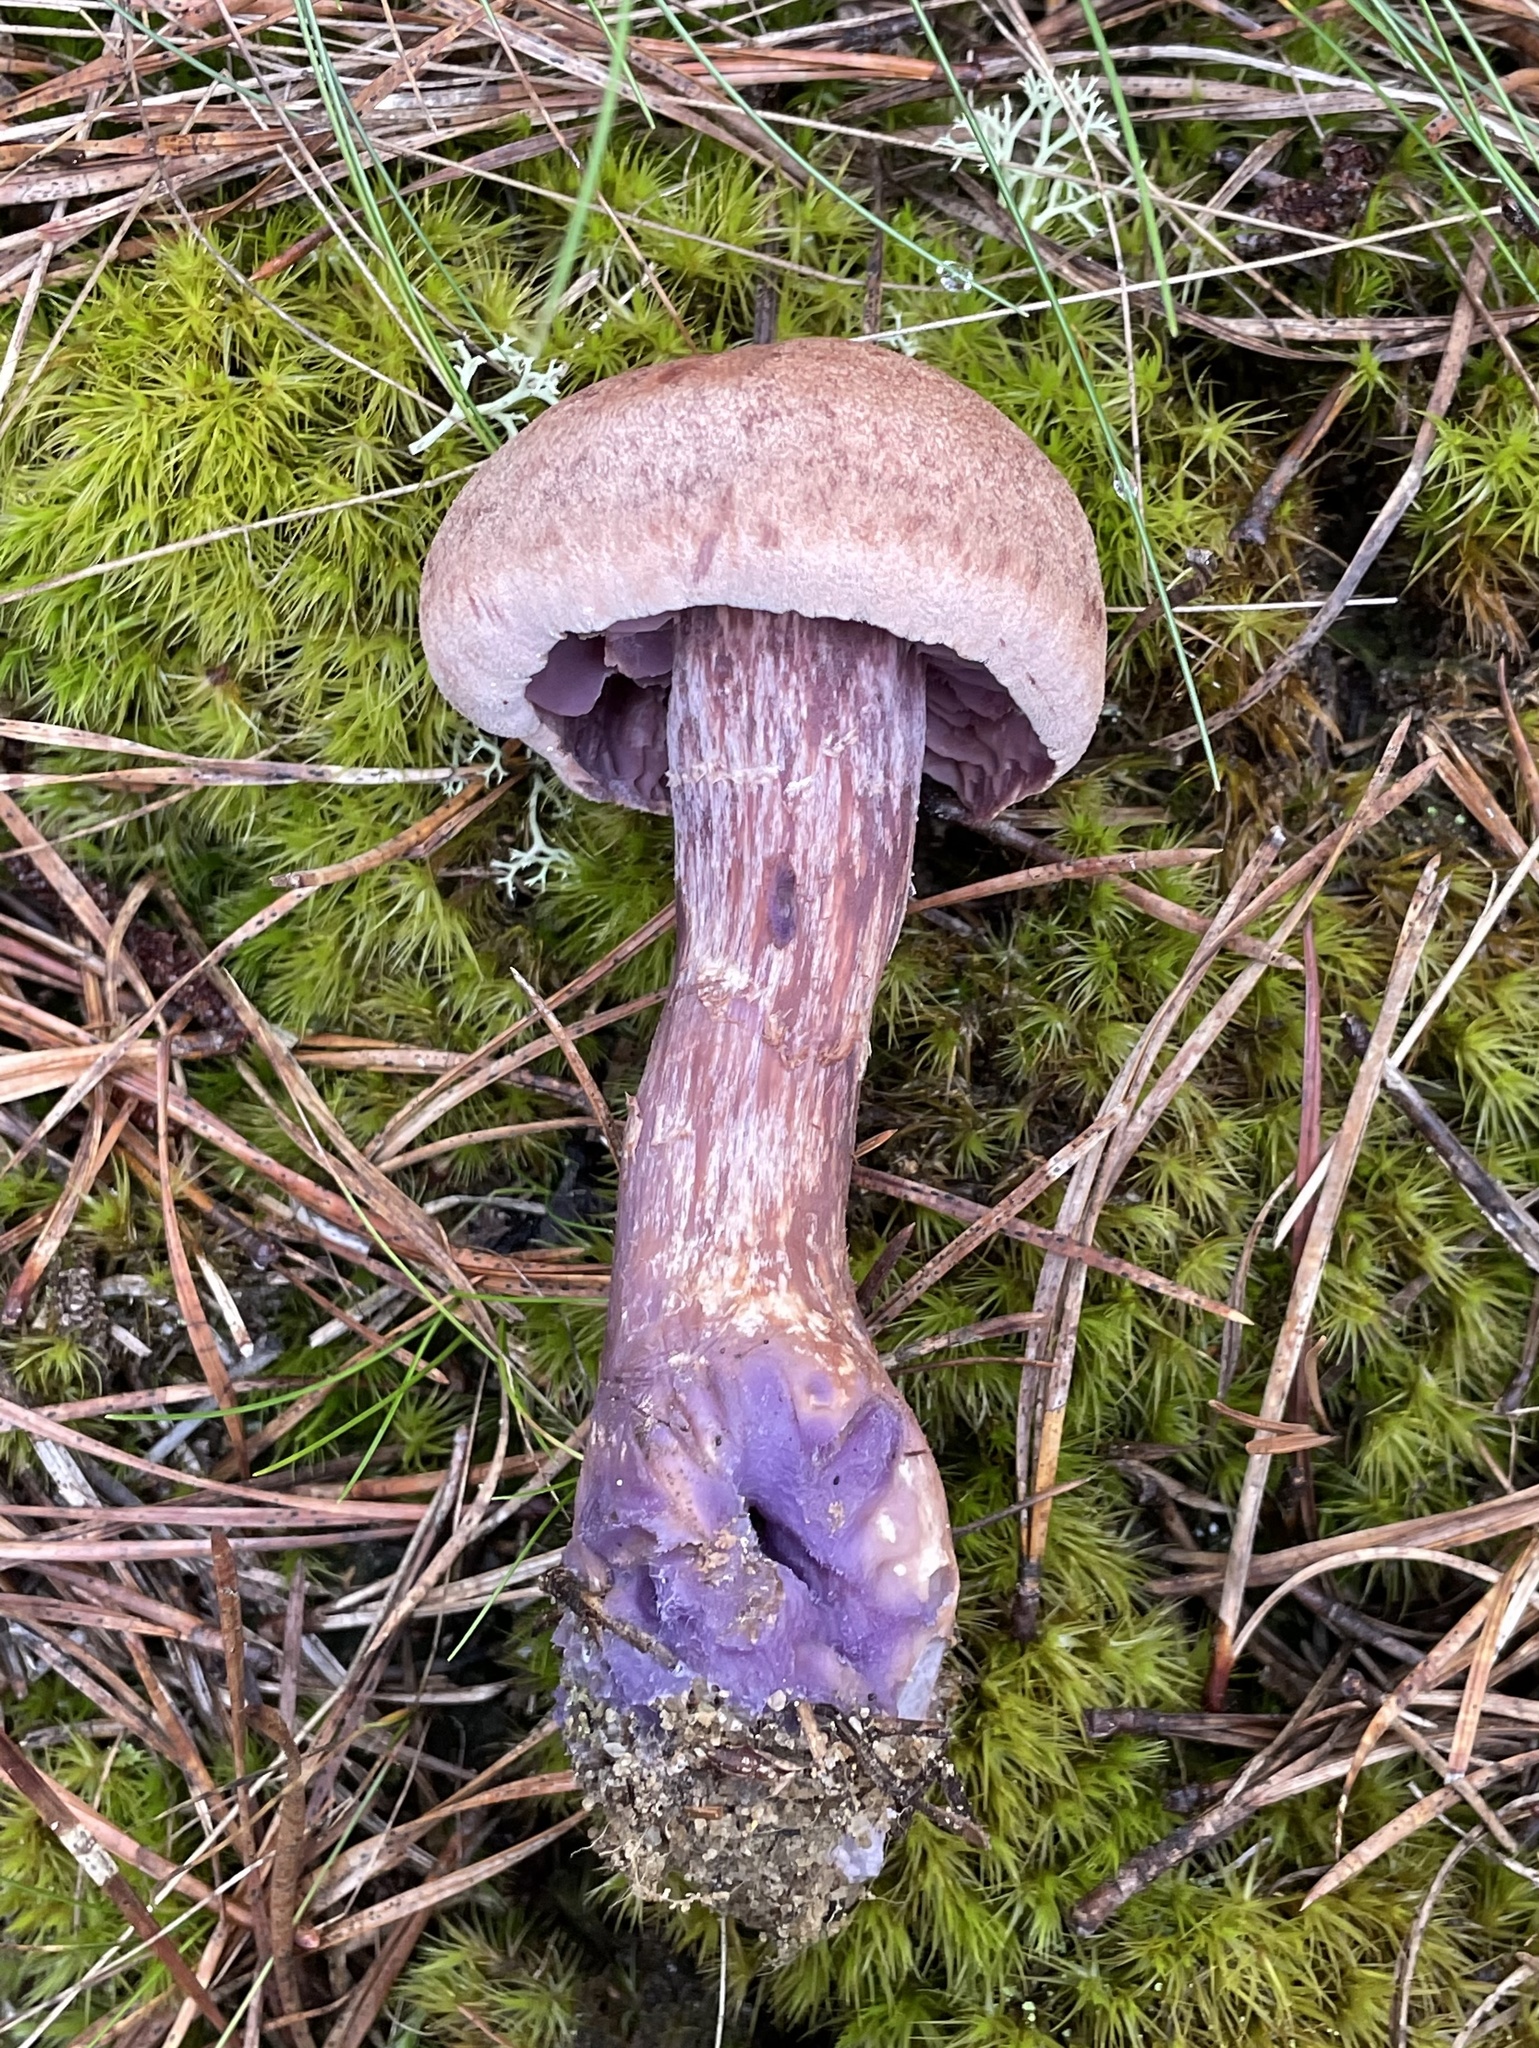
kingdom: Fungi
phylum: Basidiomycota
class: Agaricomycetes
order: Agaricales
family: Hydnangiaceae
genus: Laccaria
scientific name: Laccaria trullissata
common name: Sandy laccaria
